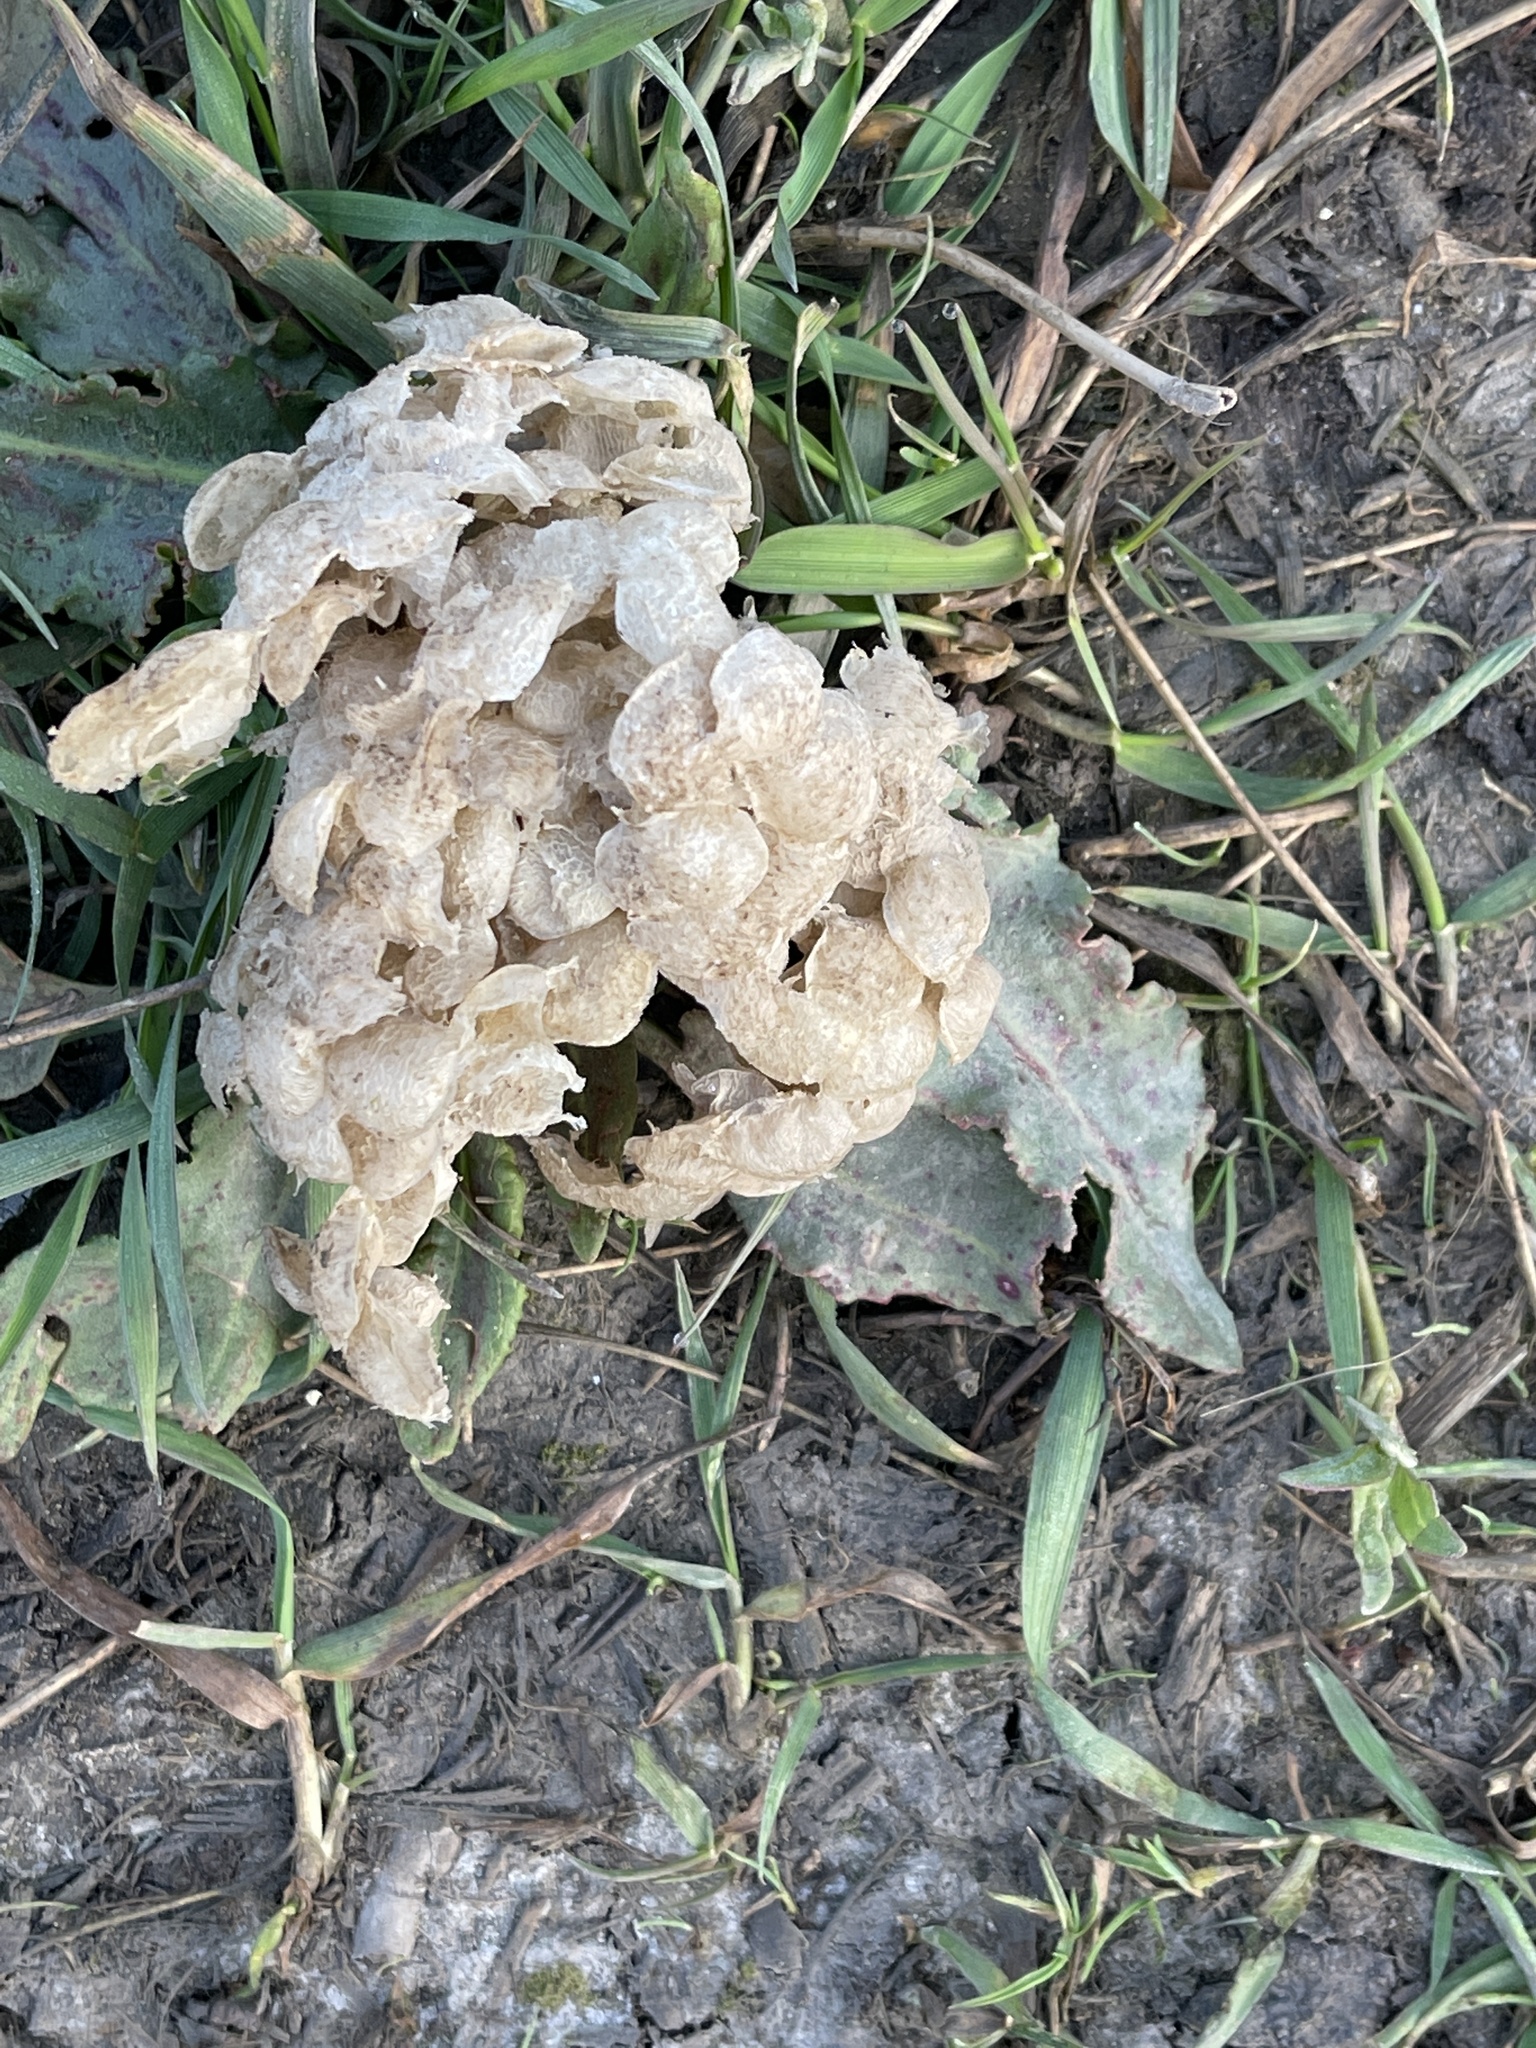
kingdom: Animalia
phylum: Mollusca
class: Gastropoda
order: Neogastropoda
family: Buccinidae
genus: Buccinum
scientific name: Buccinum undatum
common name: Common whelk
